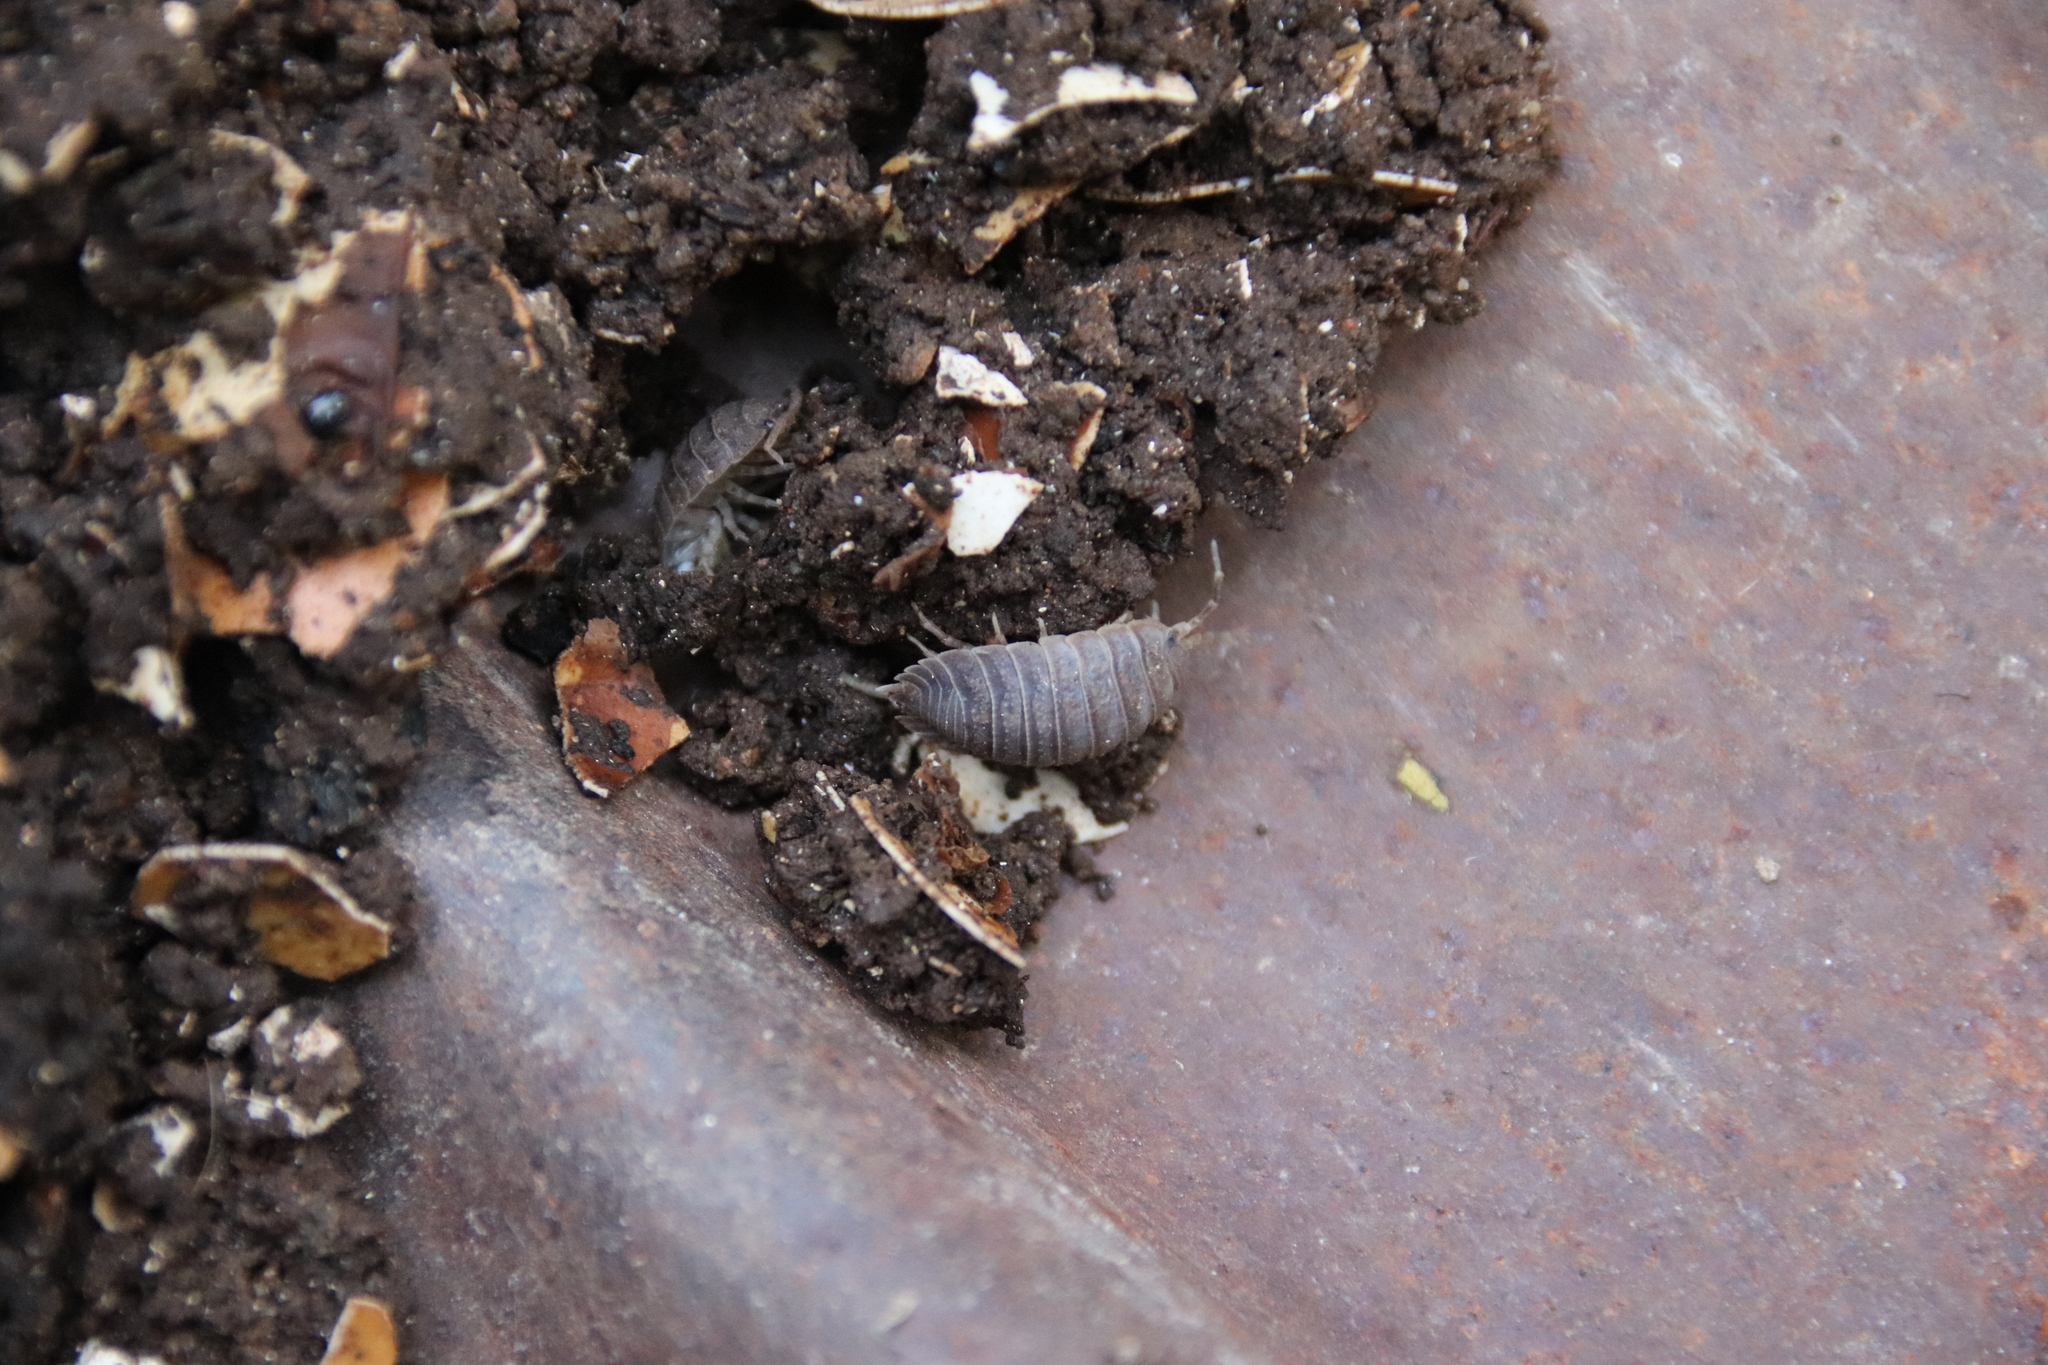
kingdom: Animalia
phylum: Arthropoda
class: Malacostraca
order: Isopoda
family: Porcellionidae
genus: Porcellio
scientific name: Porcellio dilatatus
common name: Isopod
